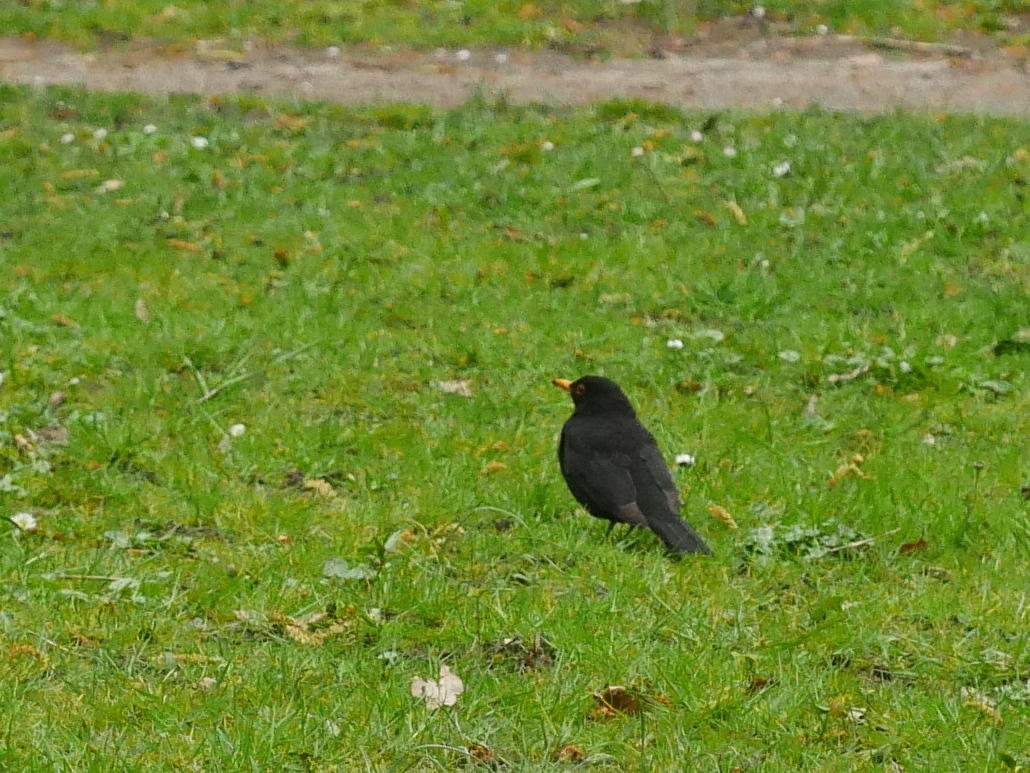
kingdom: Animalia
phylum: Chordata
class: Aves
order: Passeriformes
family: Turdidae
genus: Turdus
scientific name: Turdus merula
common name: Common blackbird
